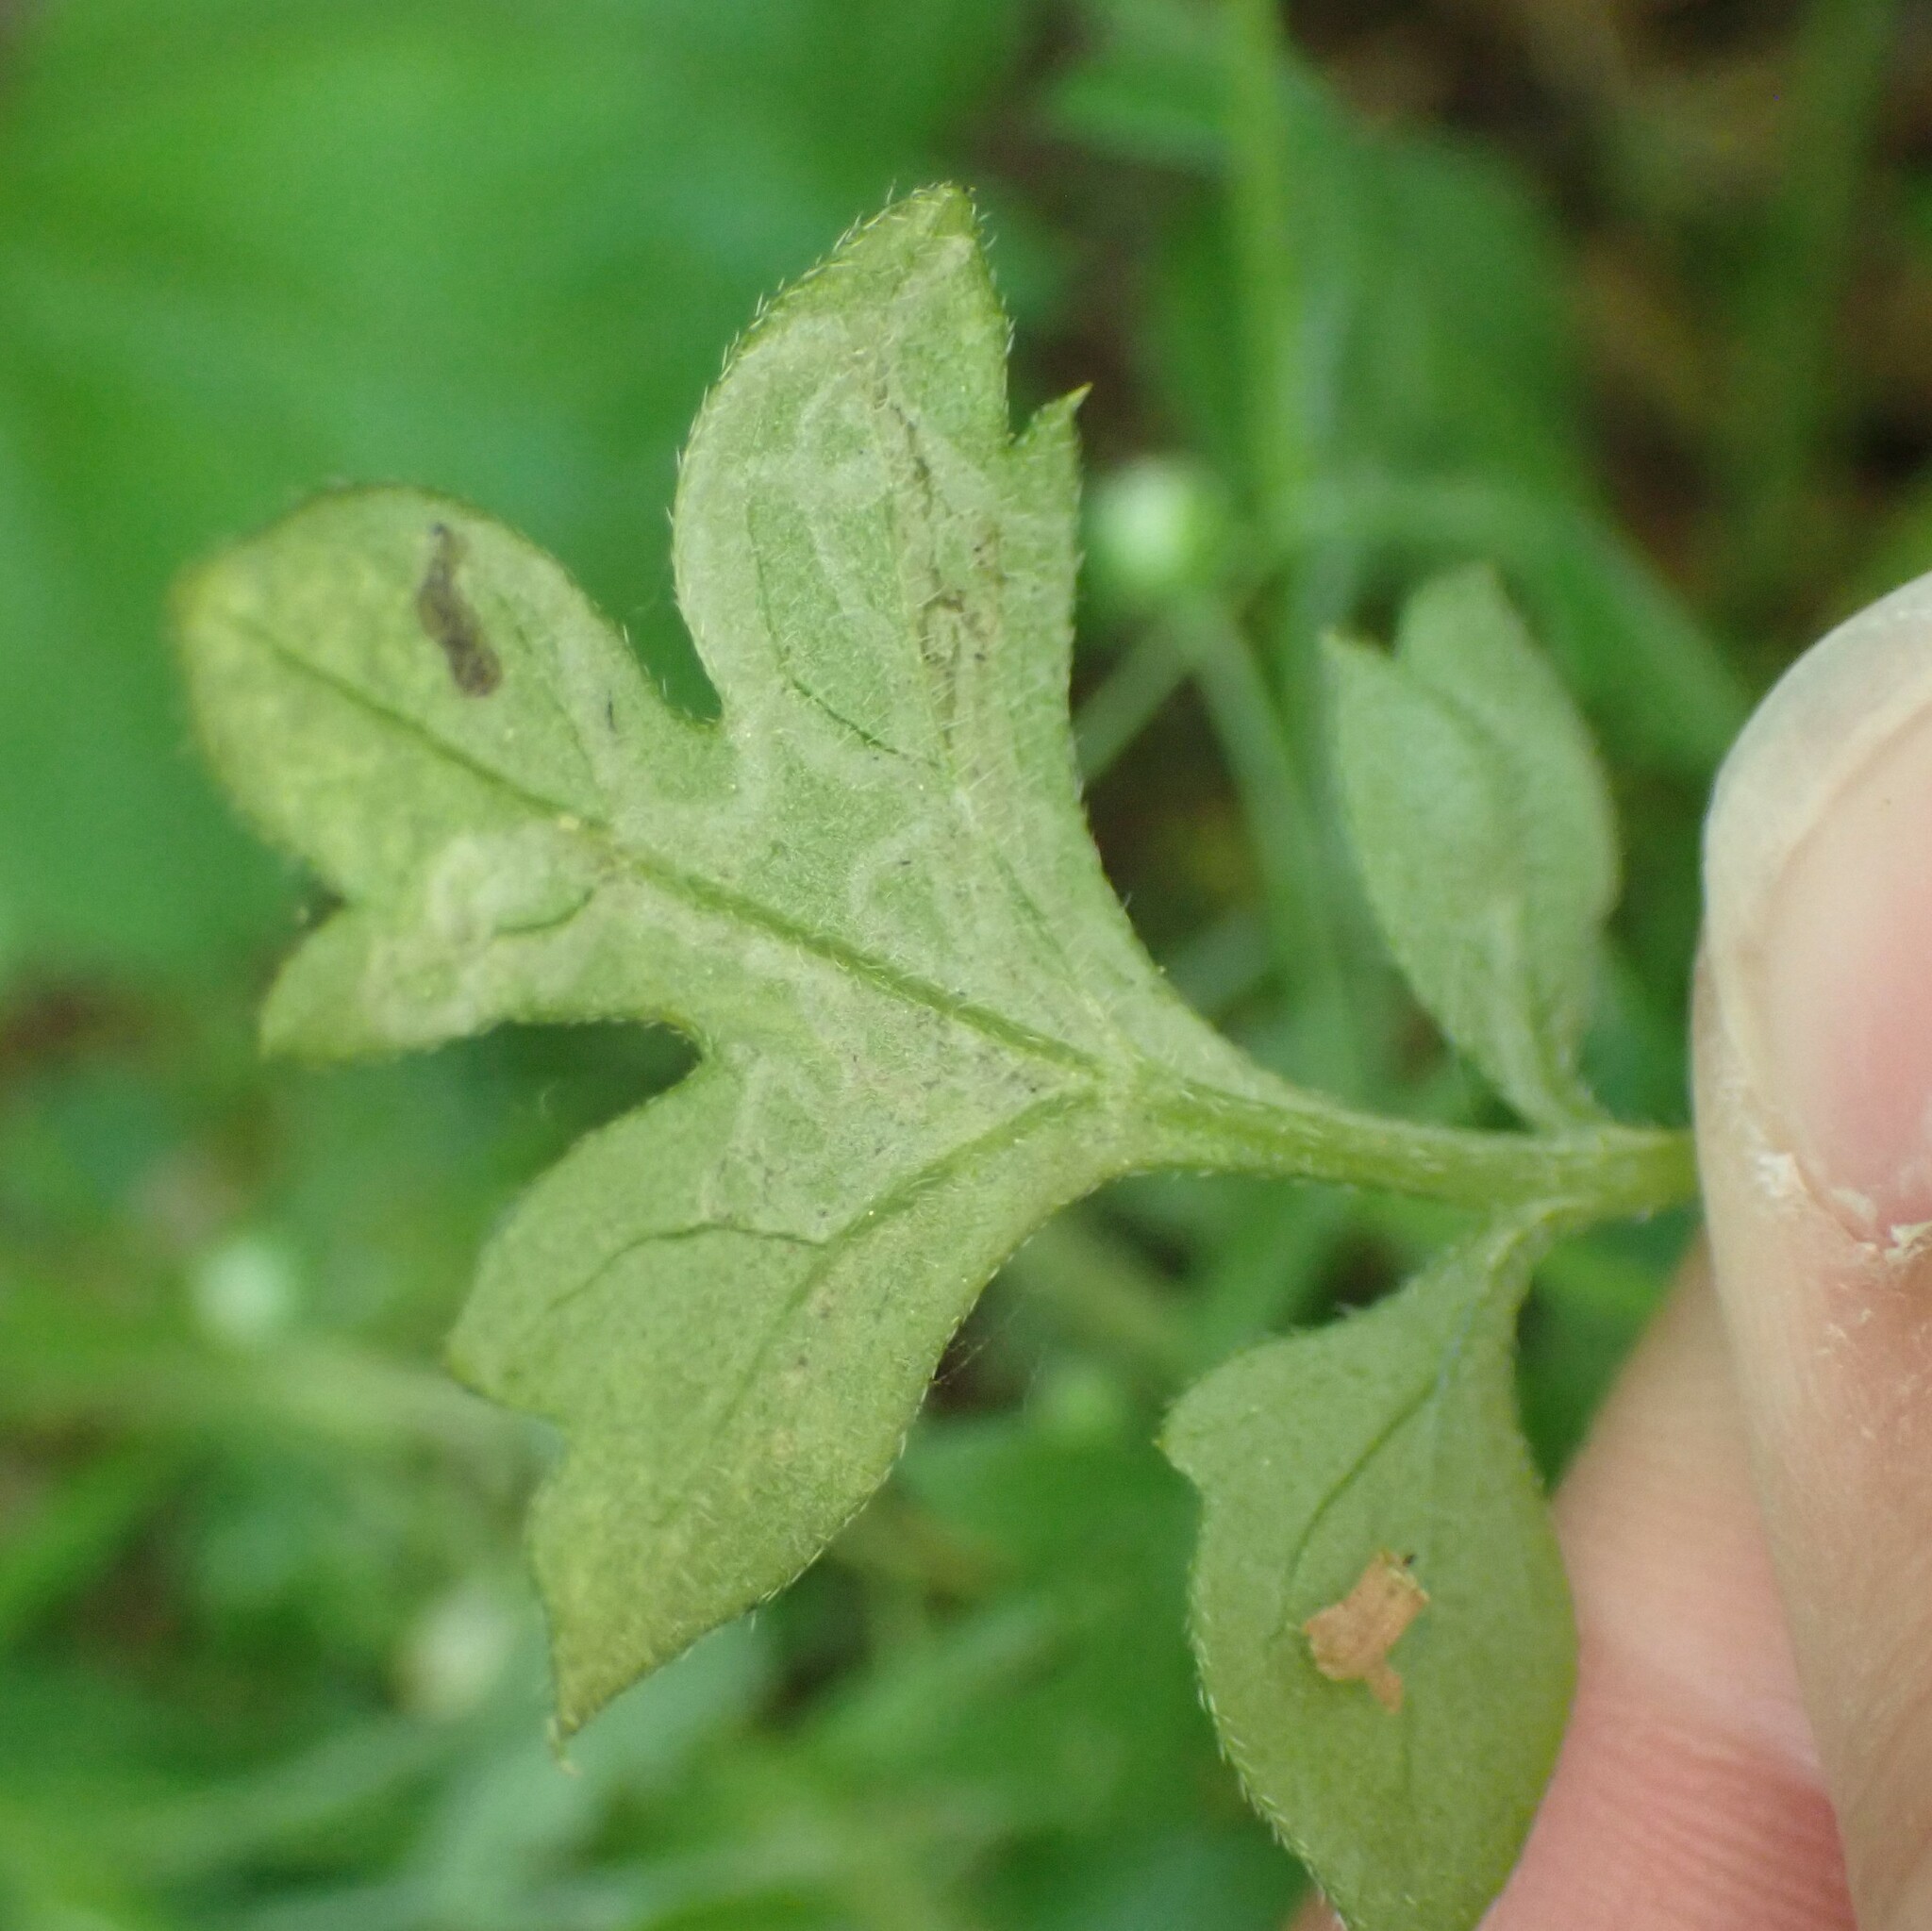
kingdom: Animalia
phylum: Arthropoda
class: Insecta
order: Diptera
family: Agromyzidae
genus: Phytomyza
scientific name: Phytomyza nemophilae
